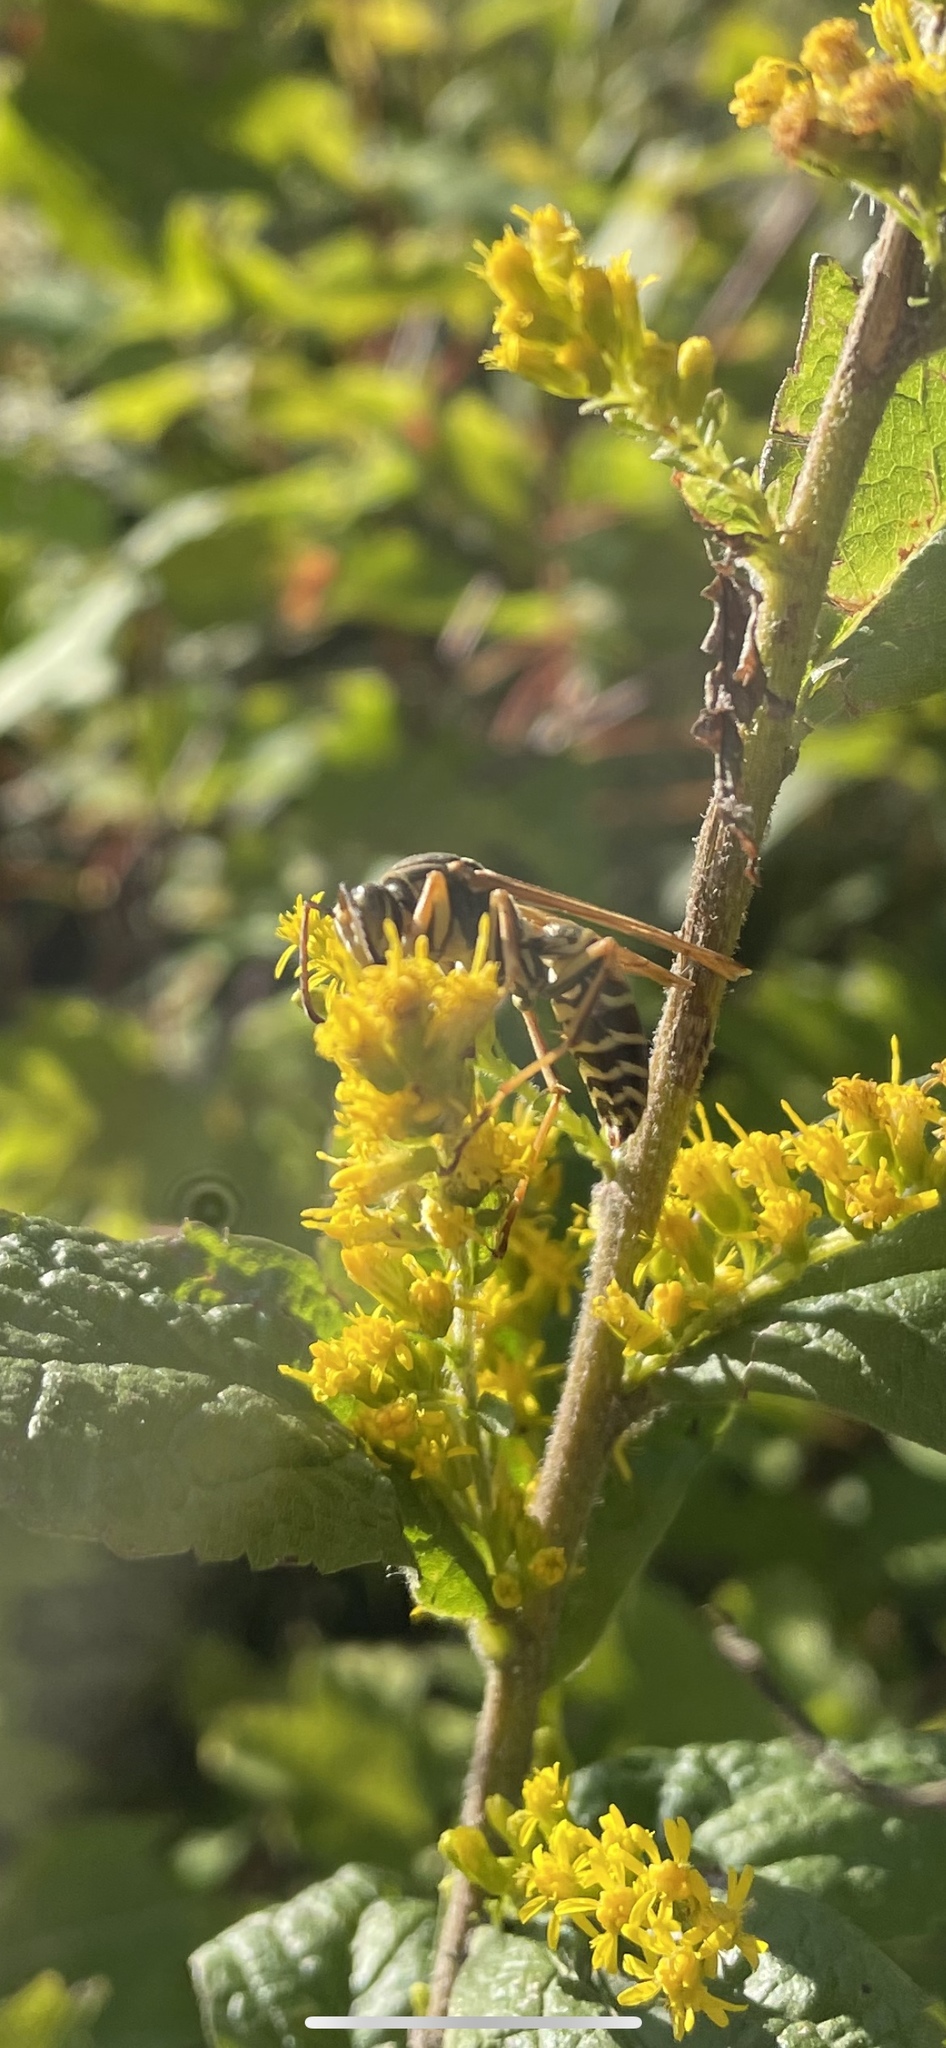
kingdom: Animalia
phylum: Arthropoda
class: Insecta
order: Hymenoptera
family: Eumenidae
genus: Polistes
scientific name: Polistes fuscatus
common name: Dark paper wasp
